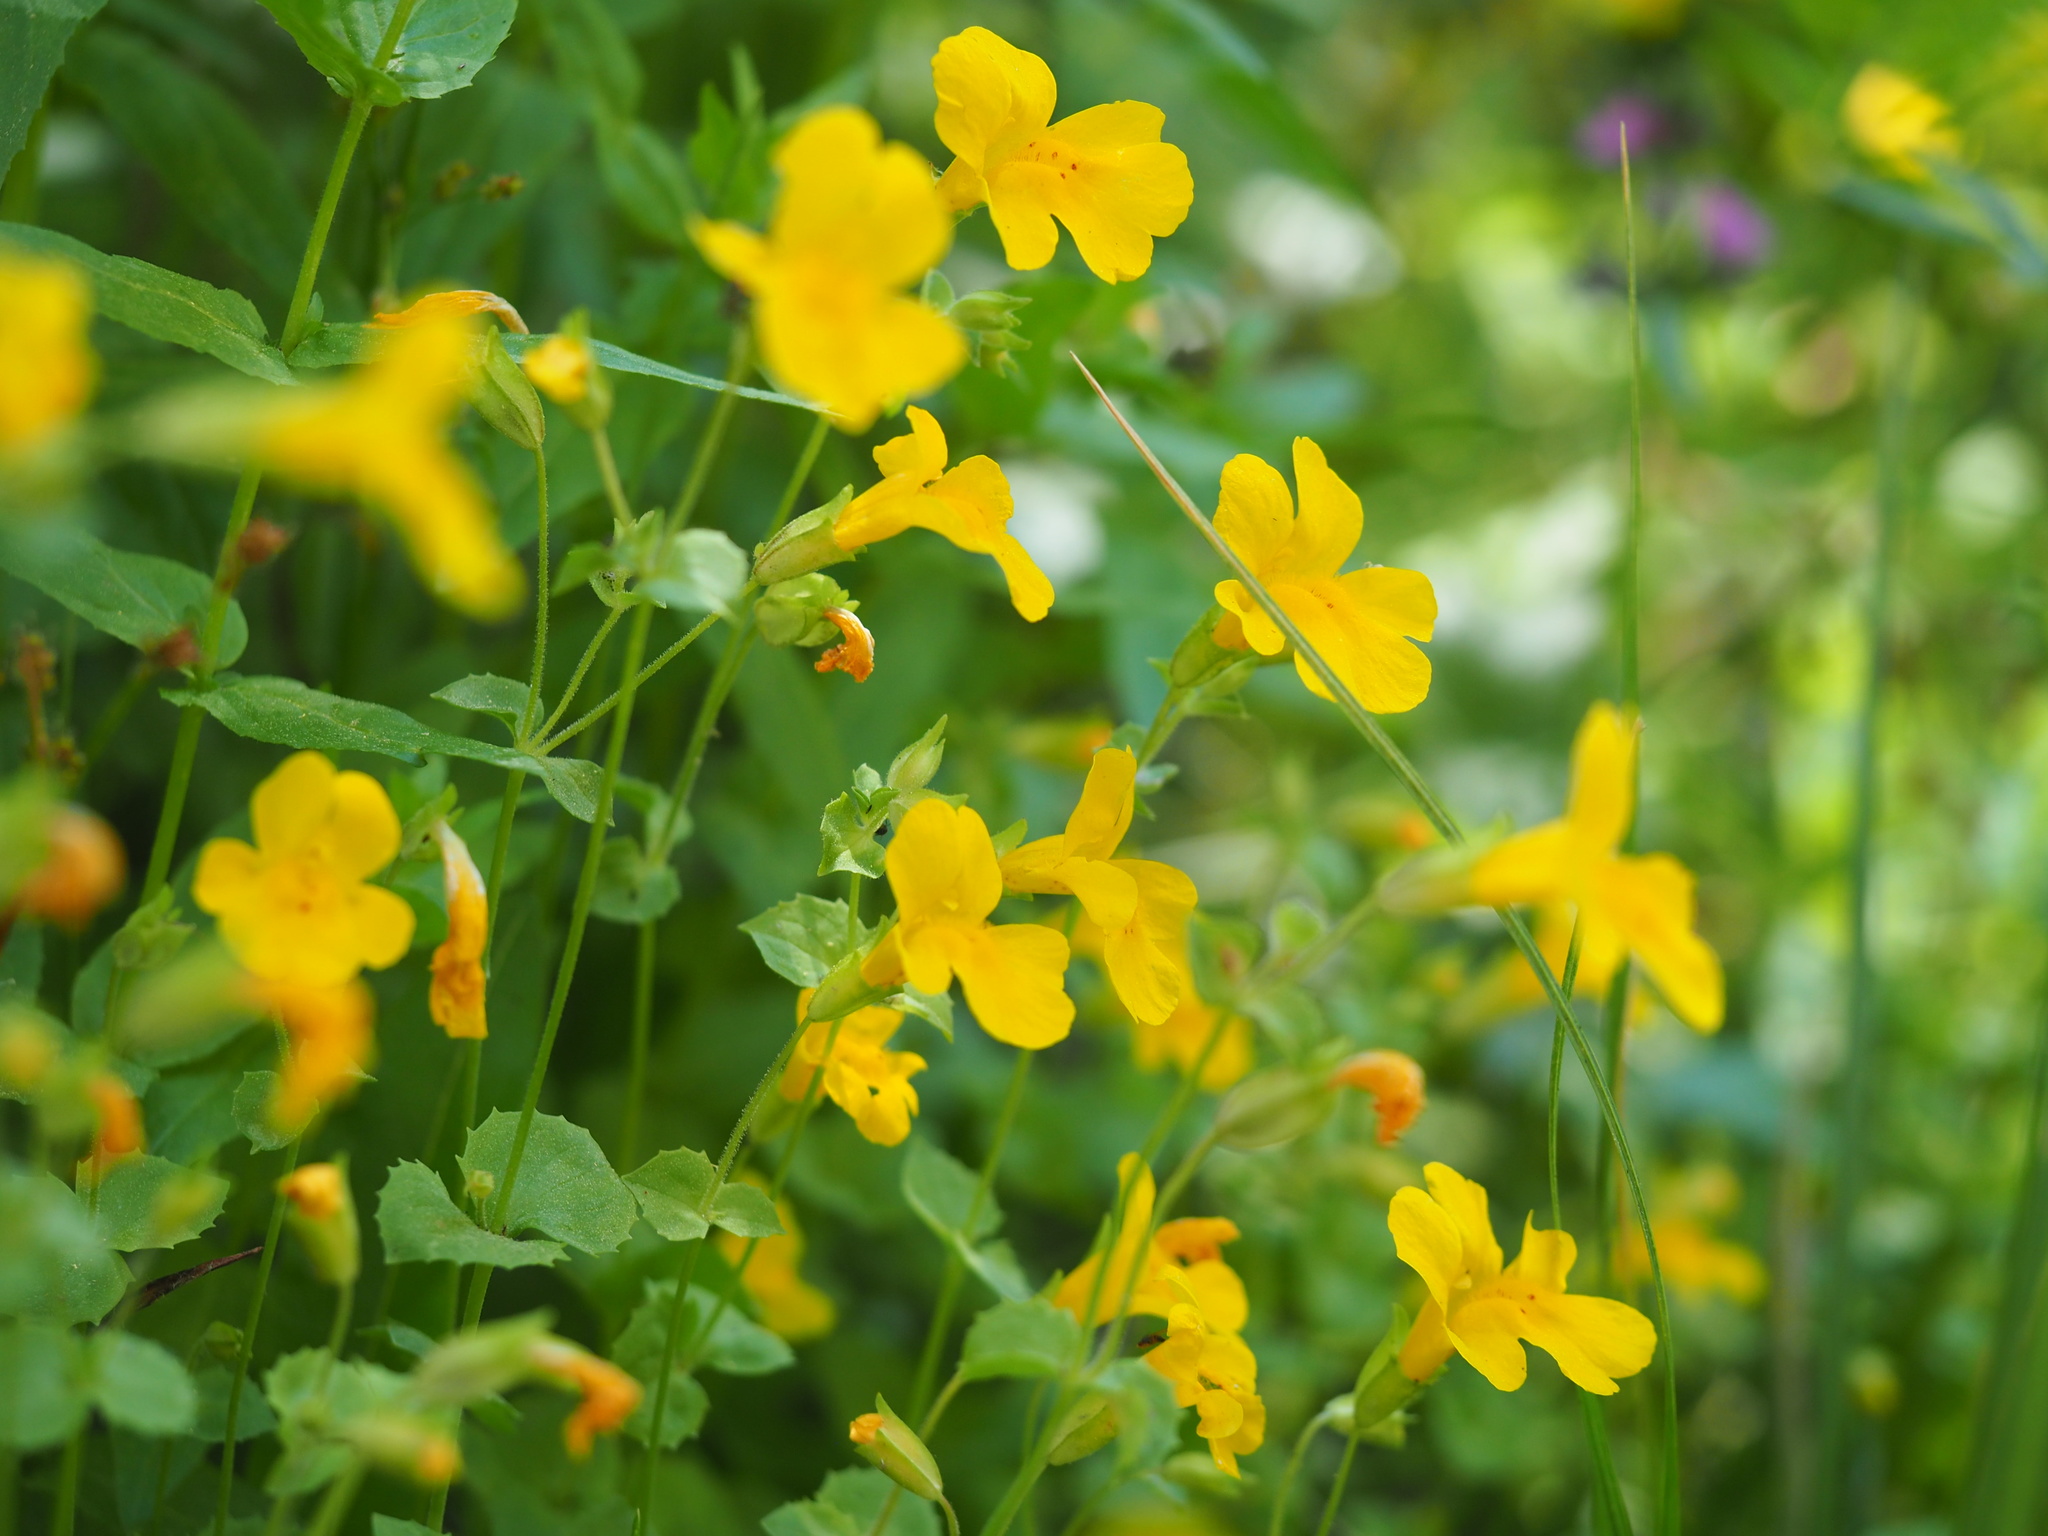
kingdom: Plantae
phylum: Tracheophyta
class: Magnoliopsida
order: Lamiales
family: Phrymaceae
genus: Erythranthe
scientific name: Erythranthe corallina
